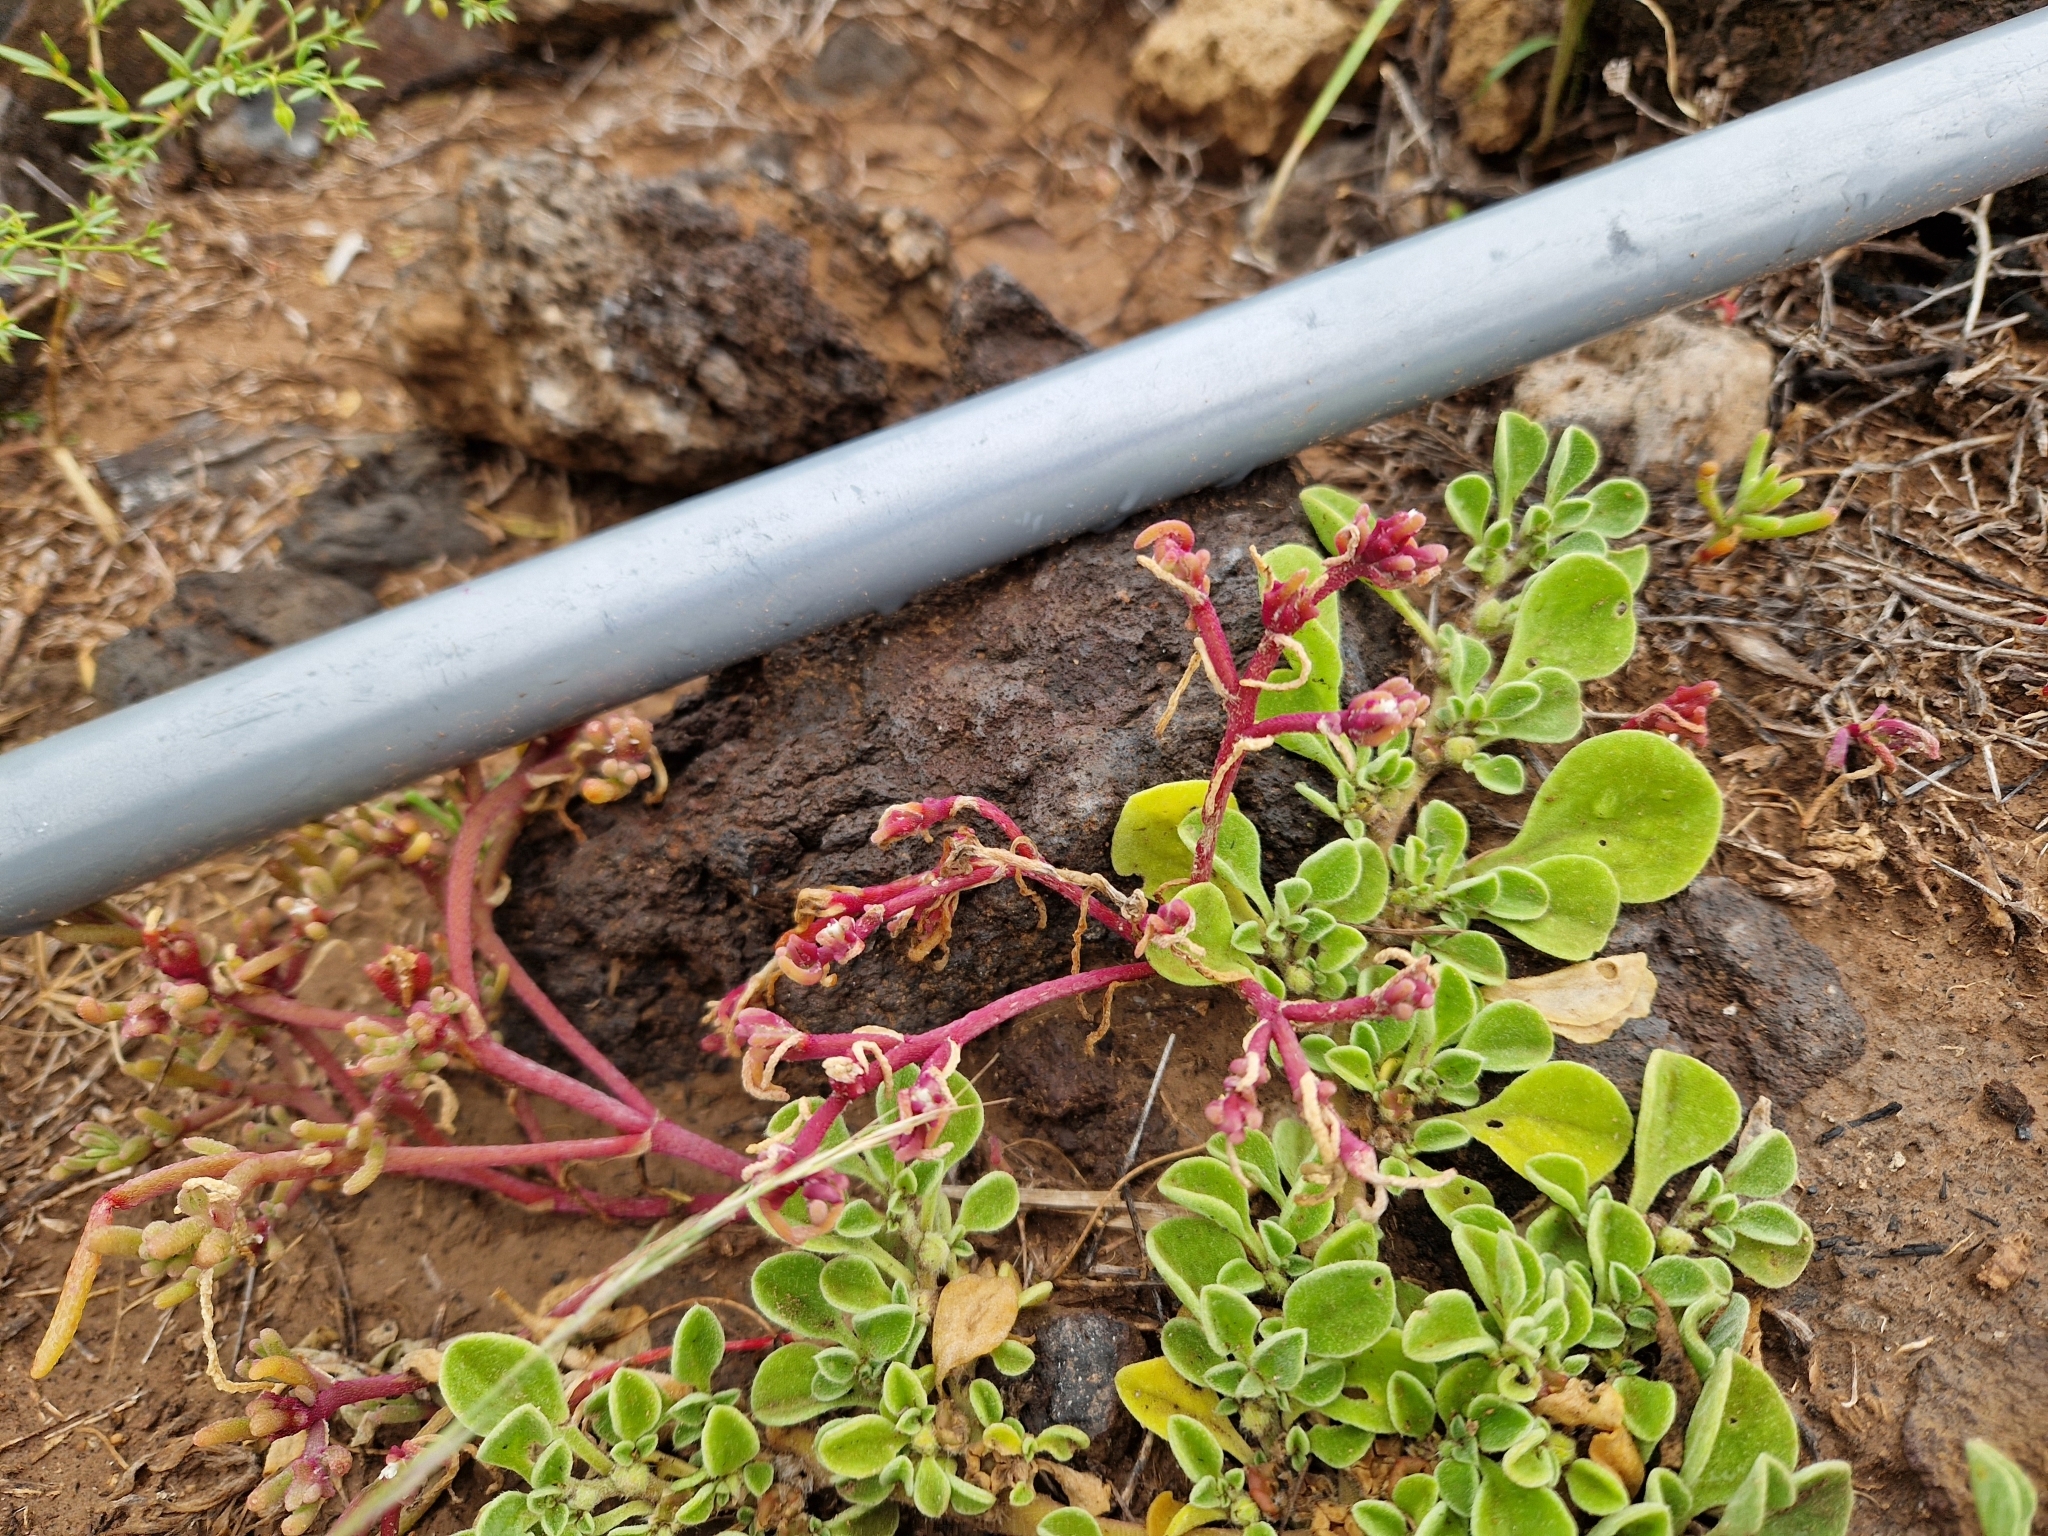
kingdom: Plantae
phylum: Tracheophyta
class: Magnoliopsida
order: Caryophyllales
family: Aizoaceae
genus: Aizoon
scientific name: Aizoon canariense
